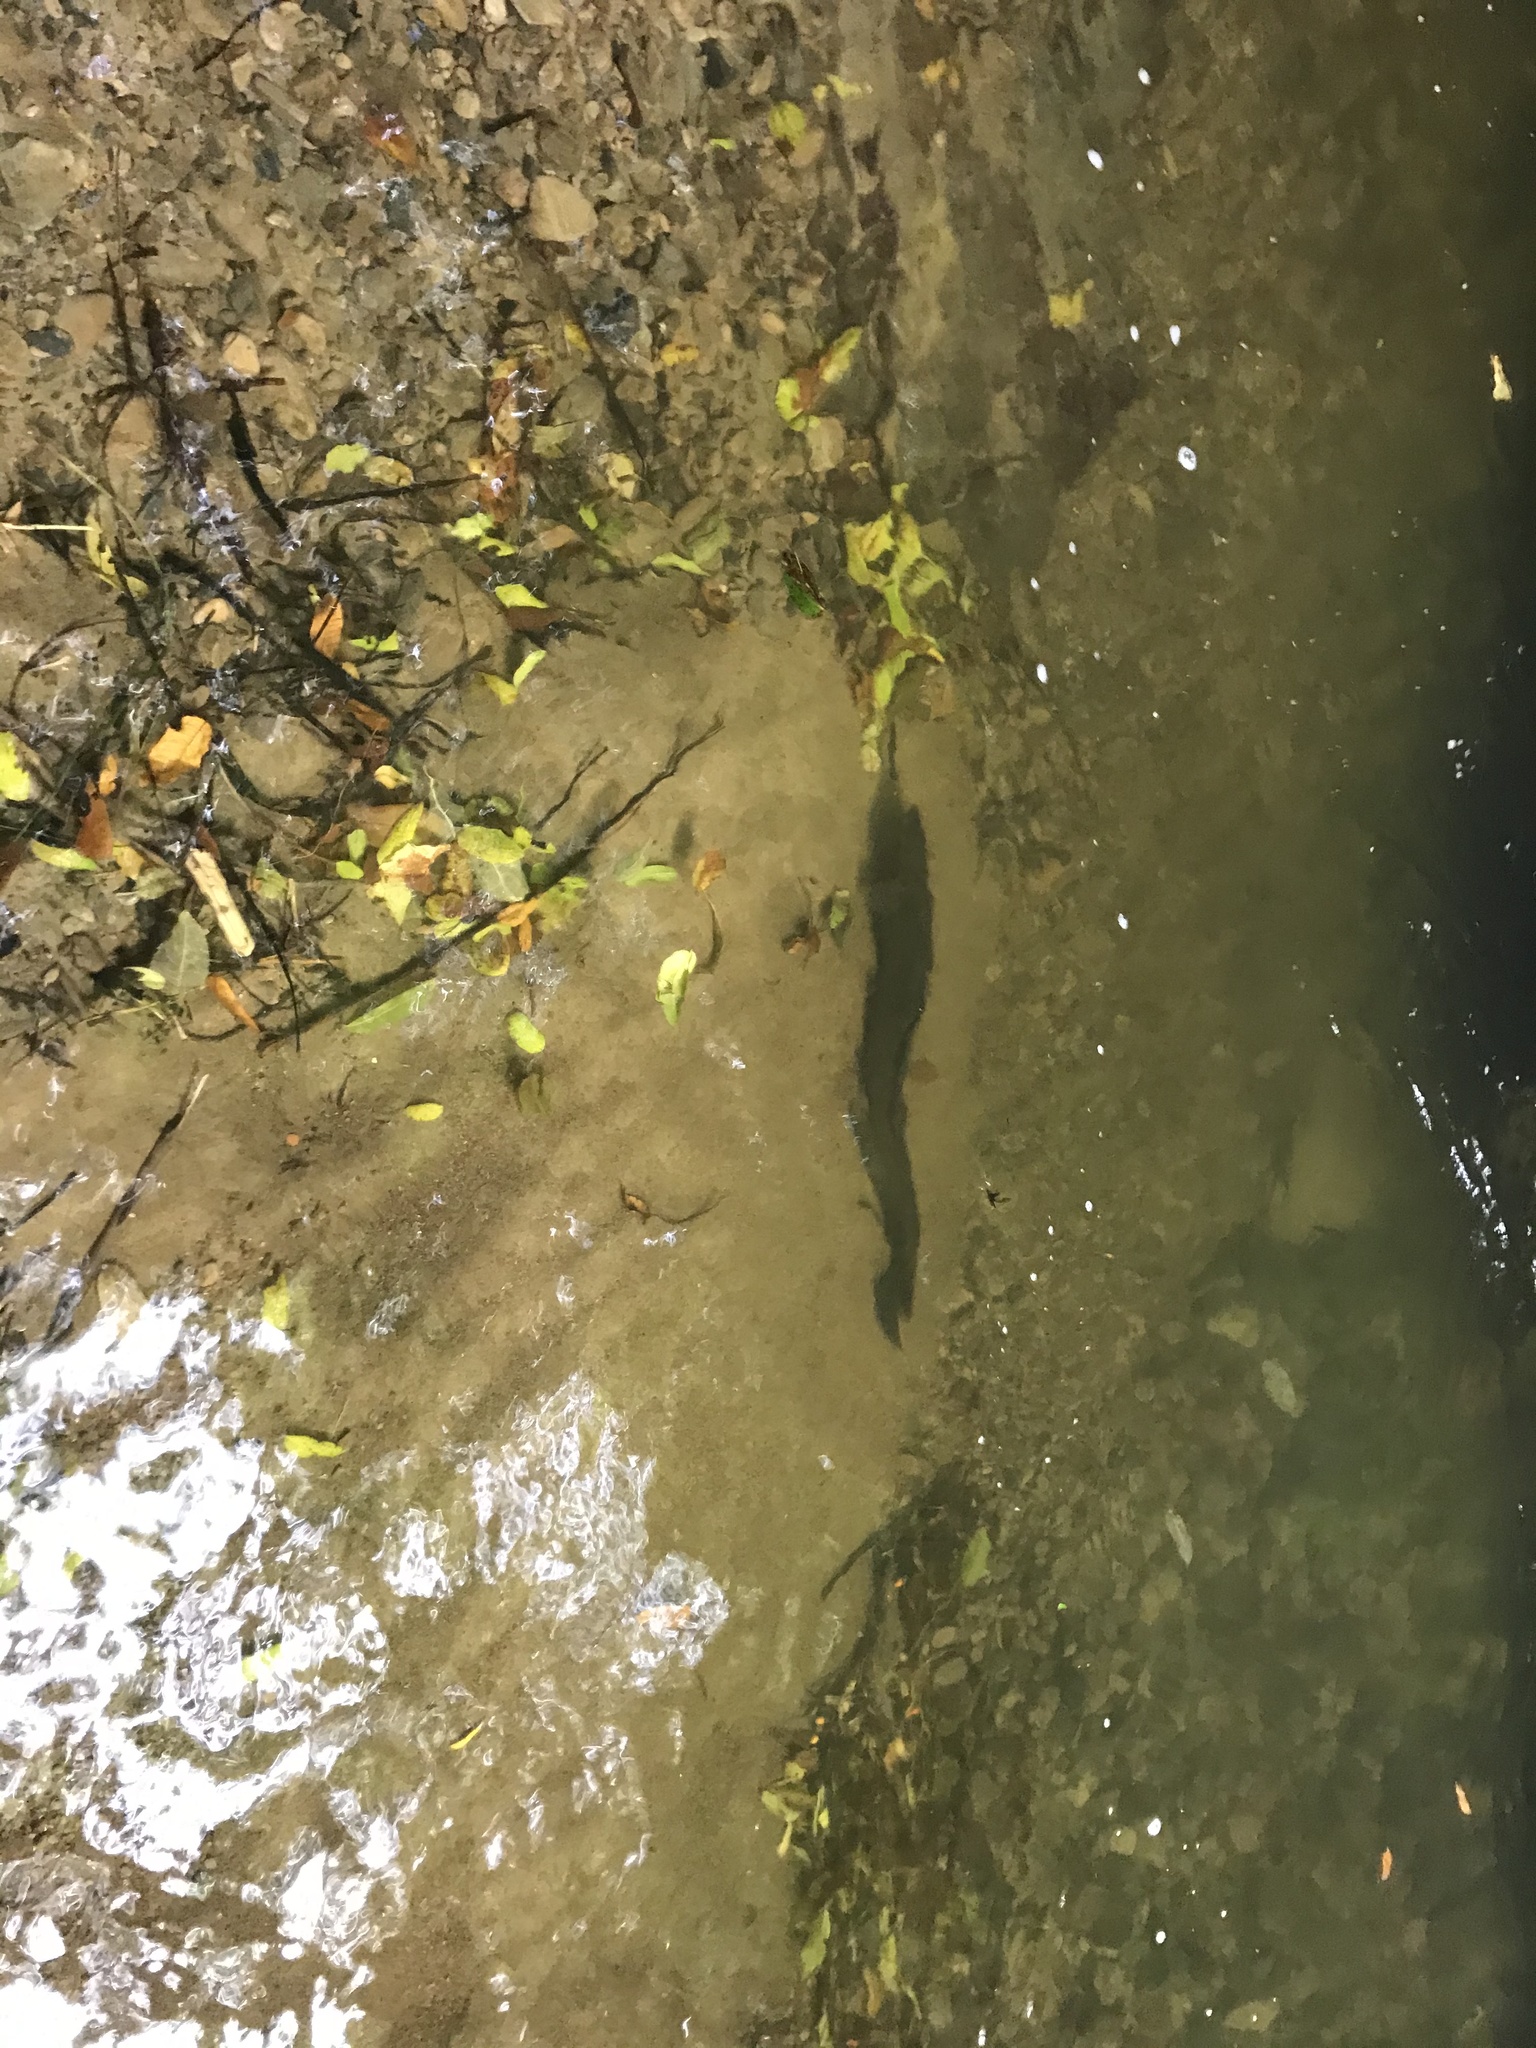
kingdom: Animalia
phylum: Chordata
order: Anguilliformes
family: Anguillidae
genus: Anguilla
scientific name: Anguilla dieffenbachii
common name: New zealand longfin eel
